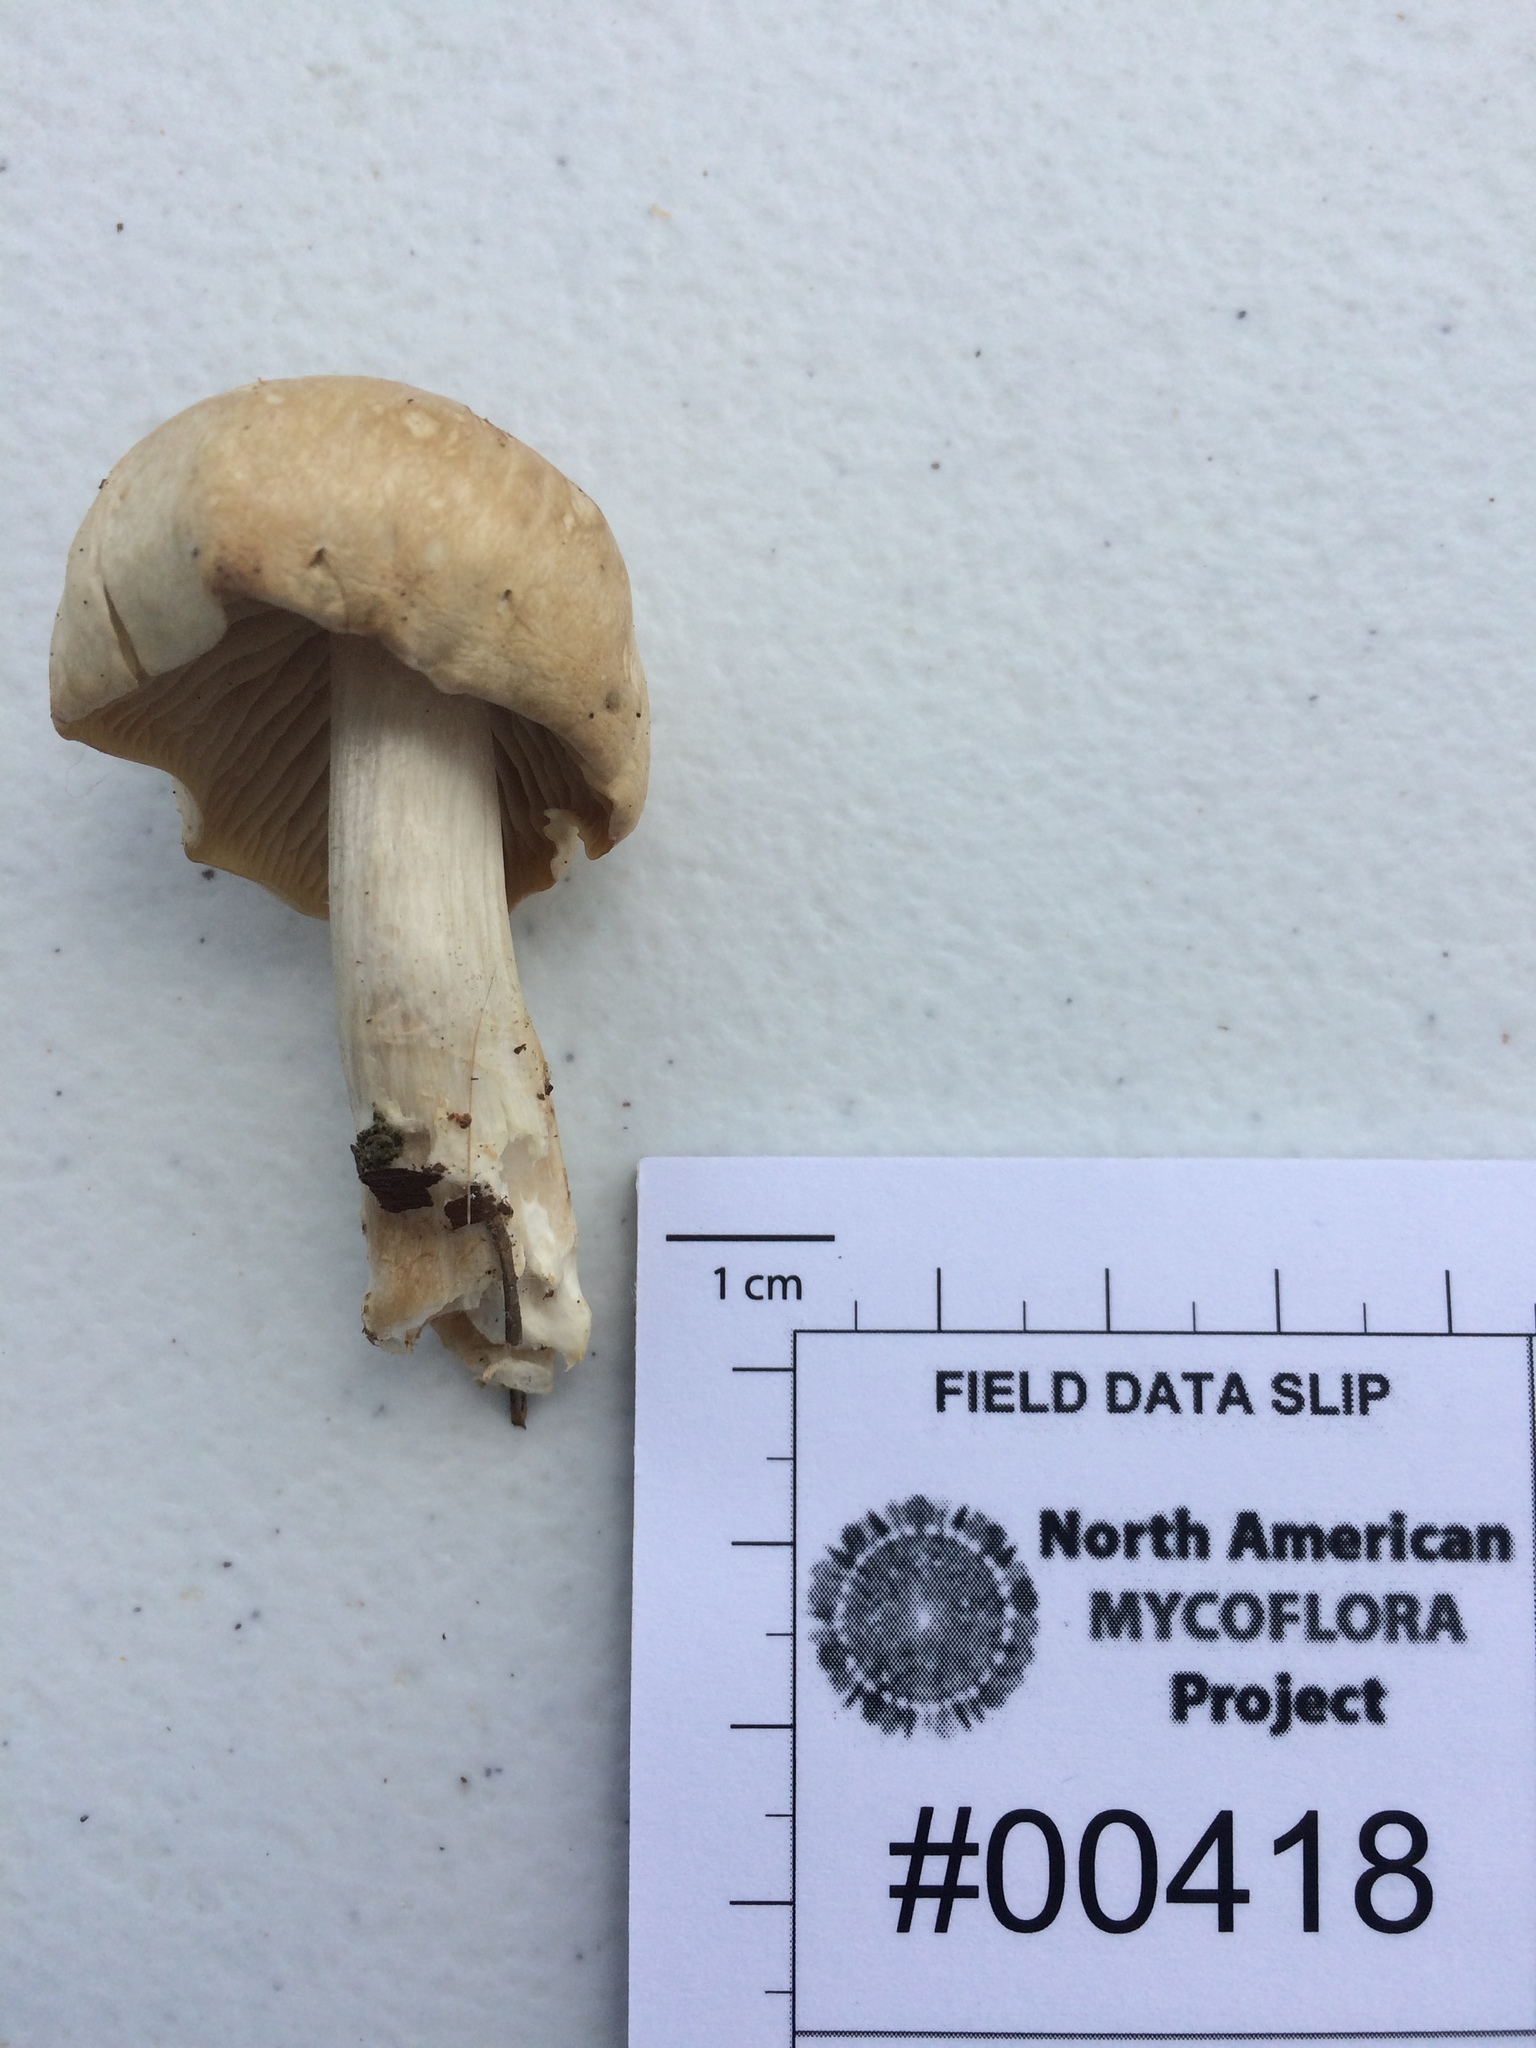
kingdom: Fungi
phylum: Basidiomycota
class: Agaricomycetes
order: Agaricales
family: Lyophyllaceae
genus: Gerhardtia
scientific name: Gerhardtia highlandensis
